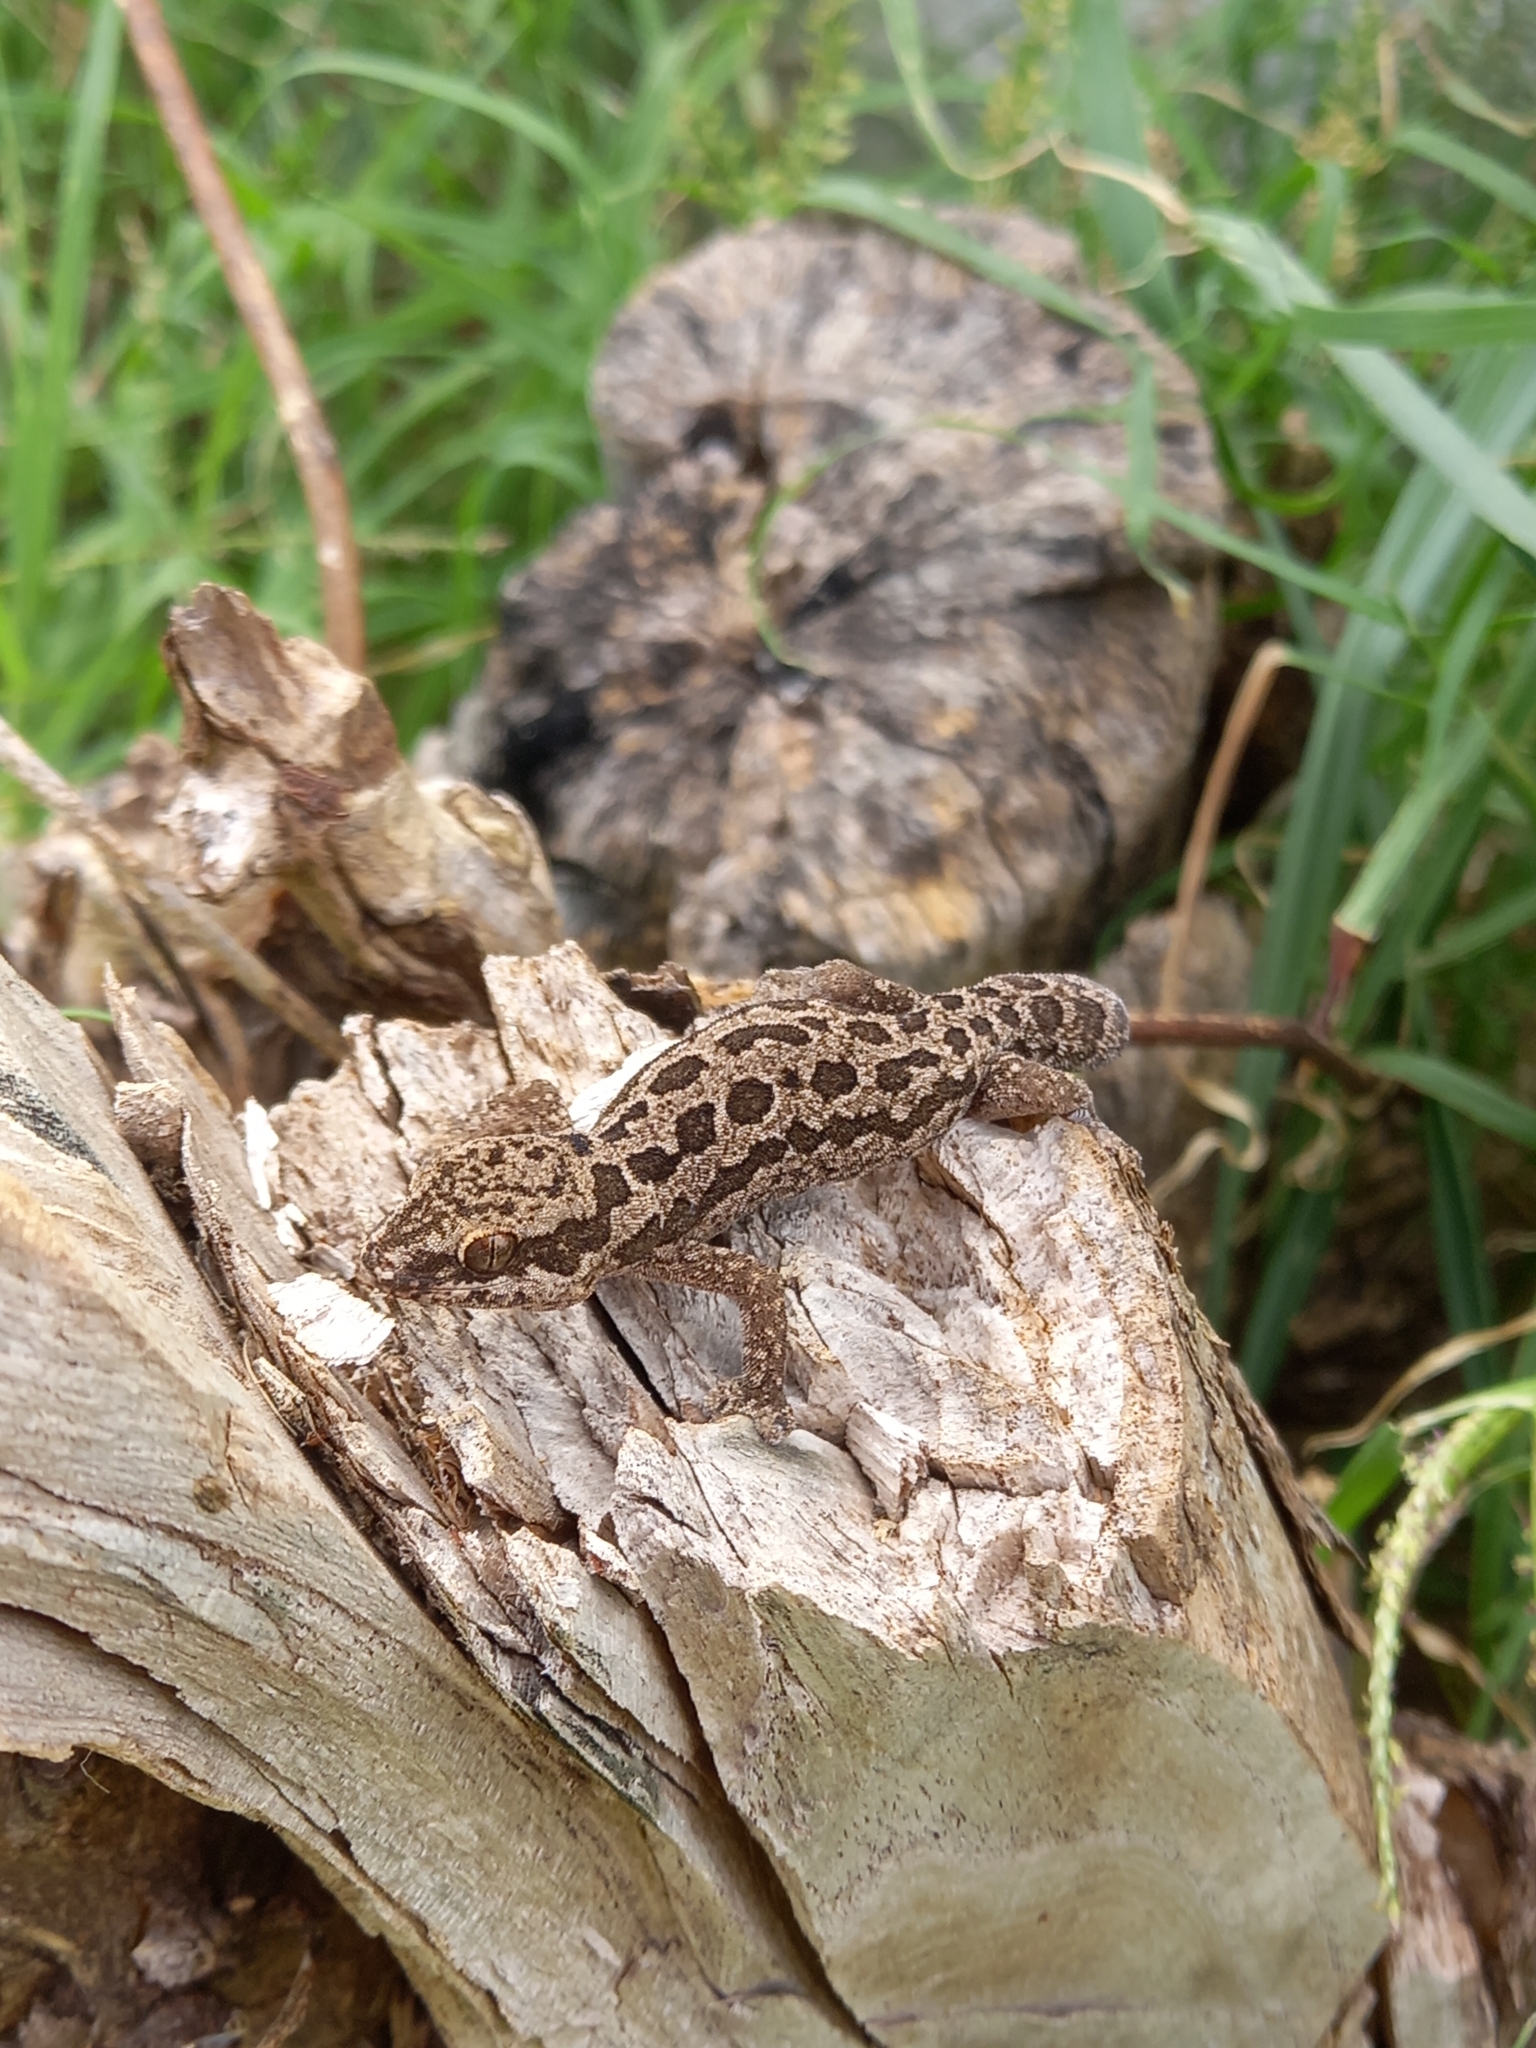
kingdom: Animalia
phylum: Chordata
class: Squamata
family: Gekkonidae
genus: Pachydactylus
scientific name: Pachydactylus maculatus
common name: Spotted thick-toed gecko
